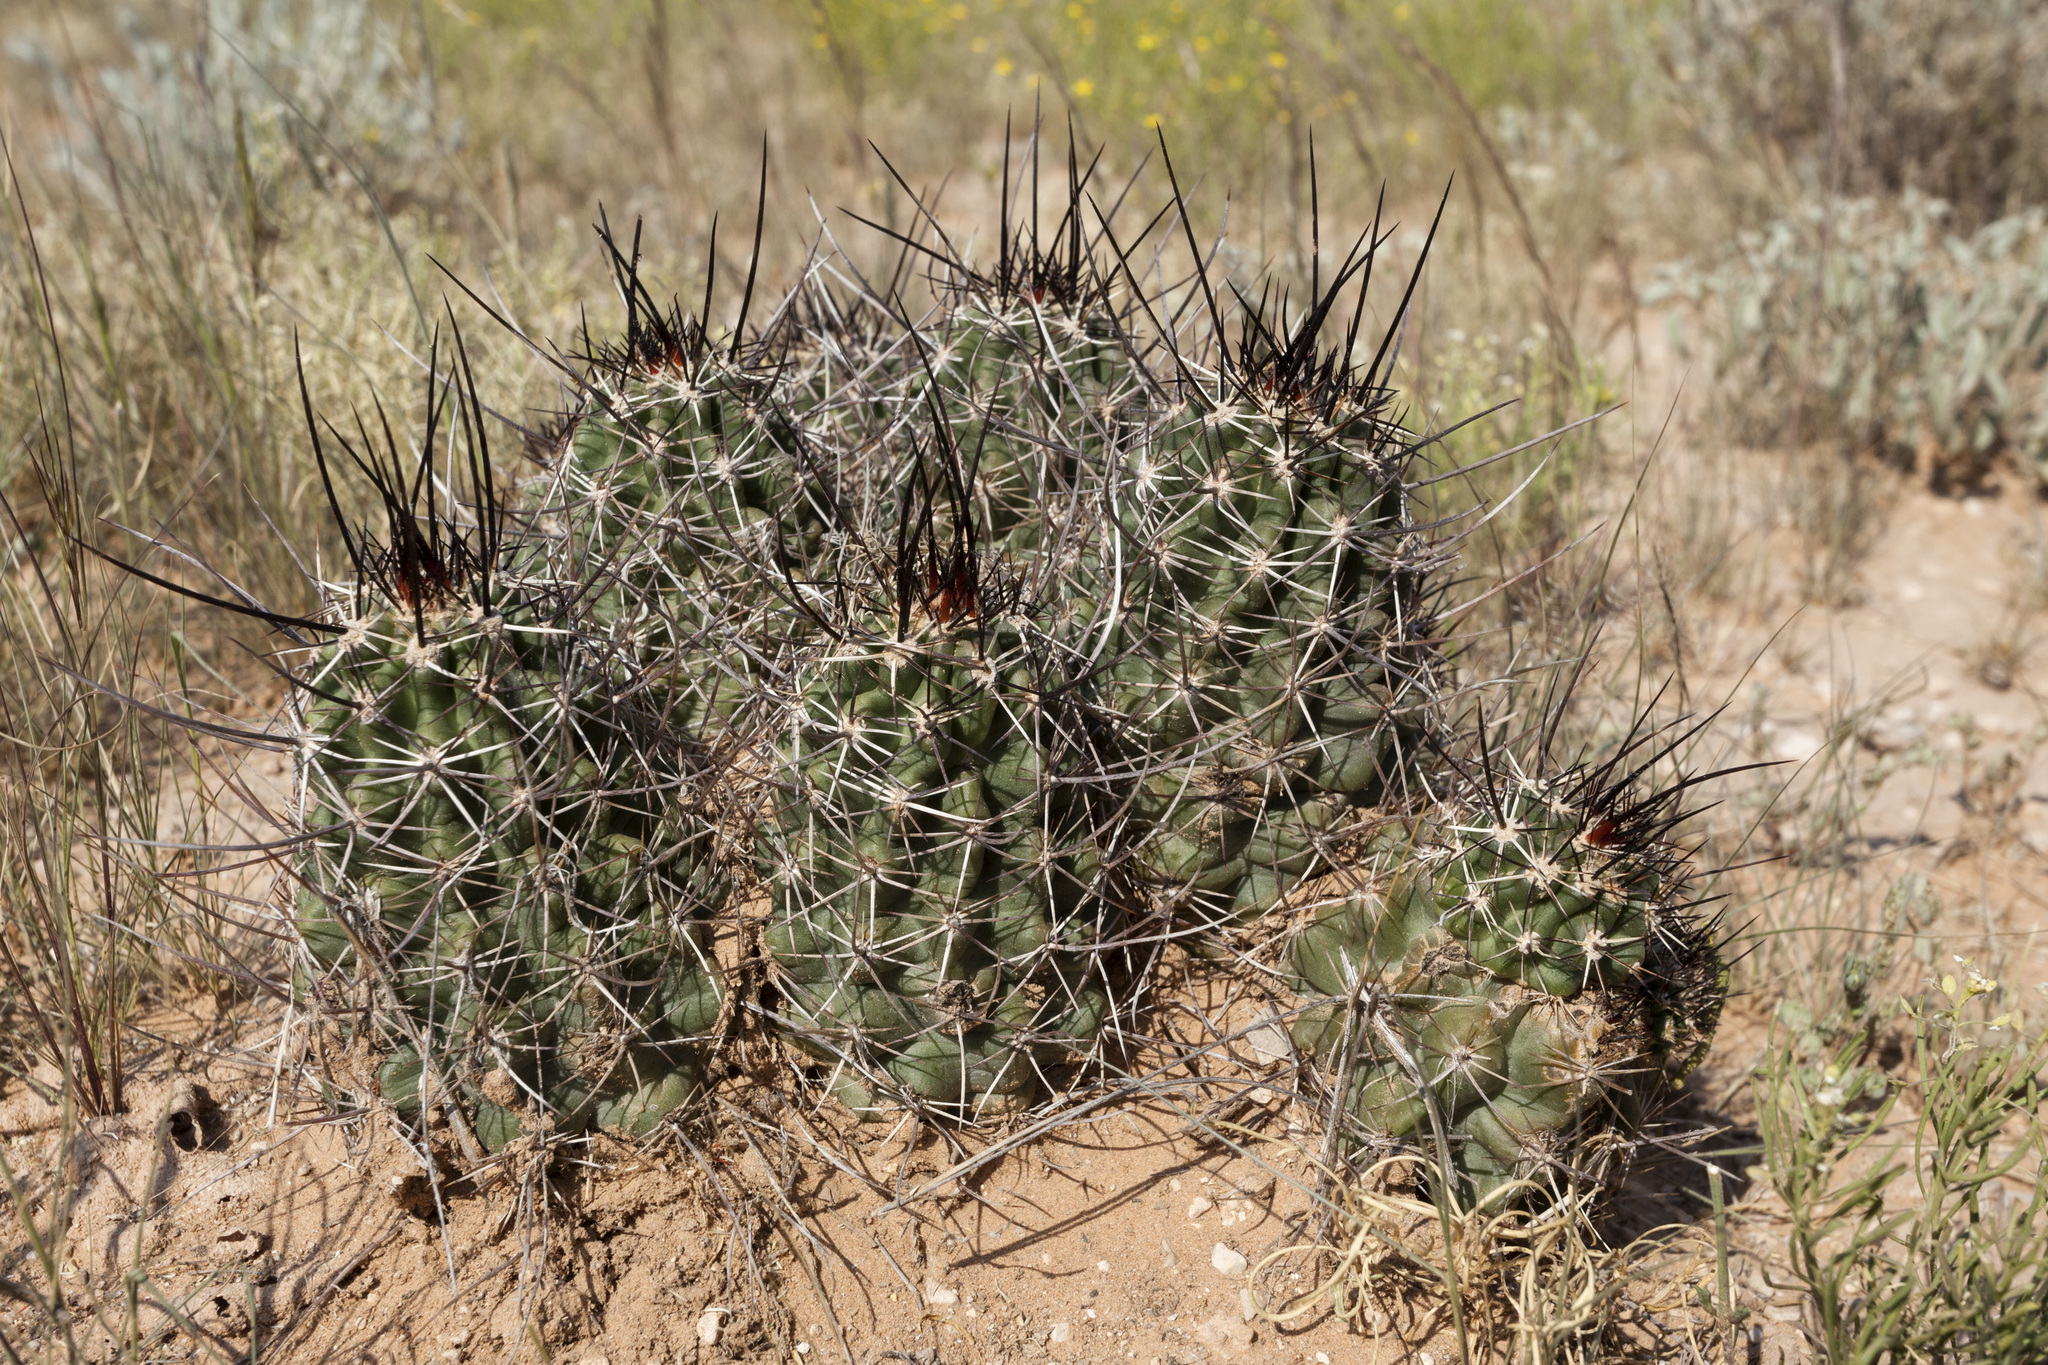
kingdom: Plantae
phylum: Tracheophyta
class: Magnoliopsida
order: Caryophyllales
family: Cactaceae
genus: Echinocereus
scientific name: Echinocereus fendleri
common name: Fendler's hedgehog cactus
